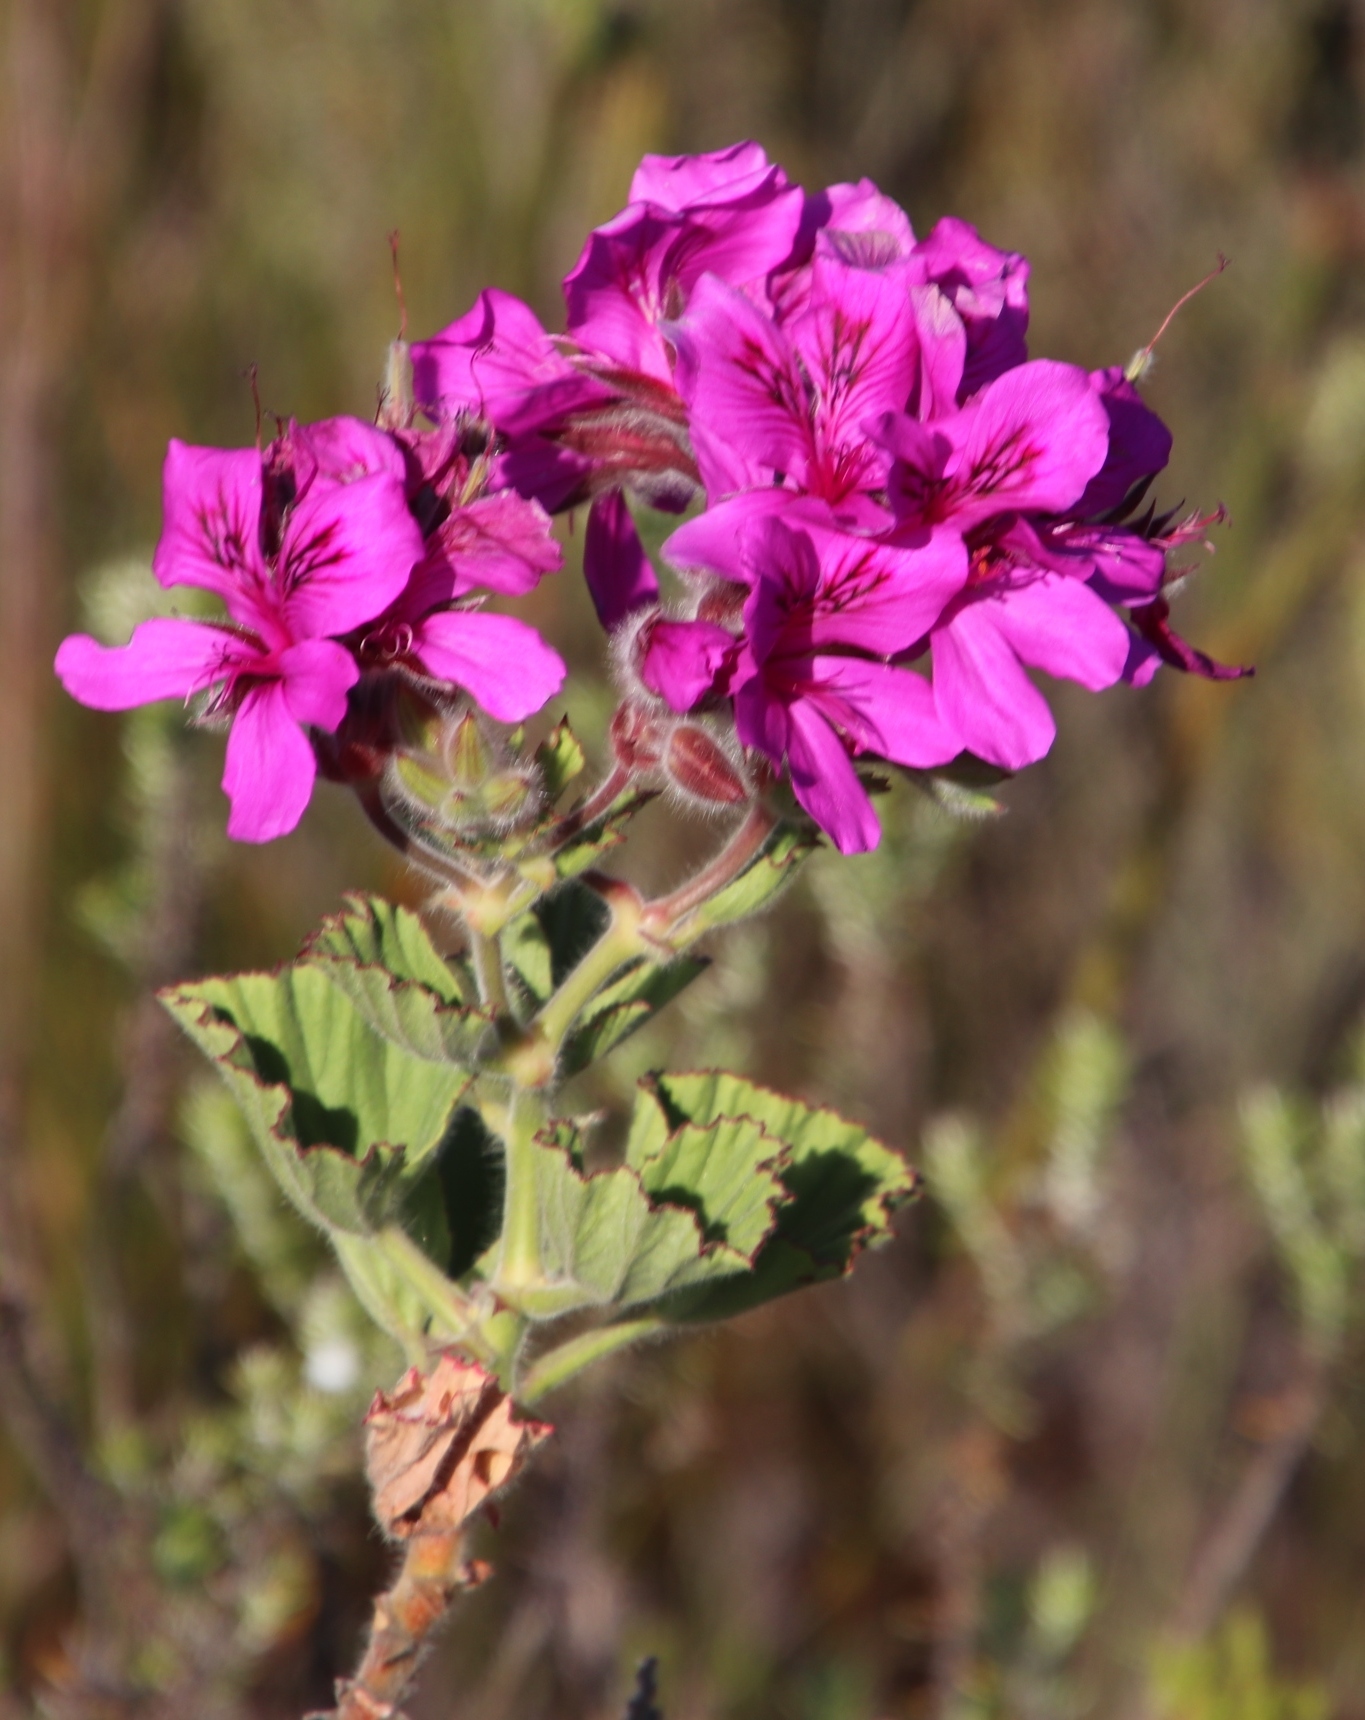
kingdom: Plantae
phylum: Tracheophyta
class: Magnoliopsida
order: Geraniales
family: Geraniaceae
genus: Pelargonium
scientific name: Pelargonium cucullatum
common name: Tree pelargonium
